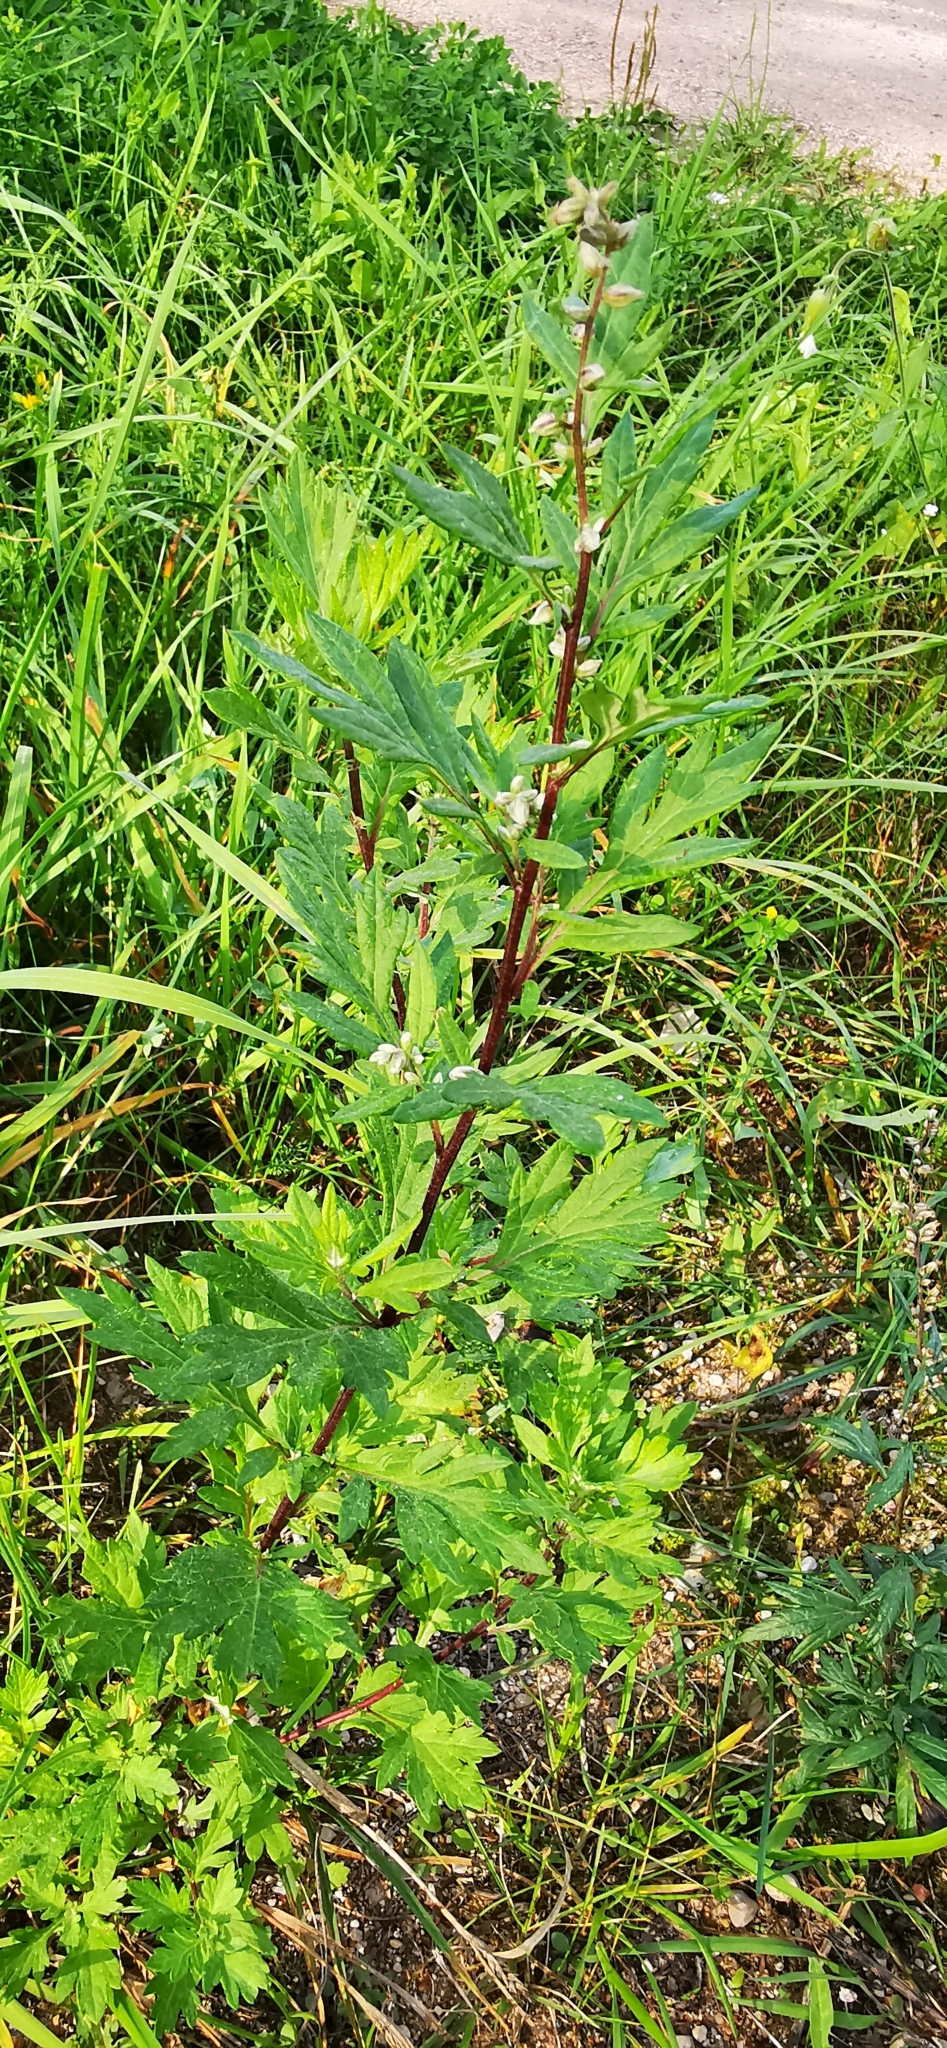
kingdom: Plantae
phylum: Tracheophyta
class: Magnoliopsida
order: Asterales
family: Asteraceae
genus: Artemisia
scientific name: Artemisia vulgaris
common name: Mugwort
